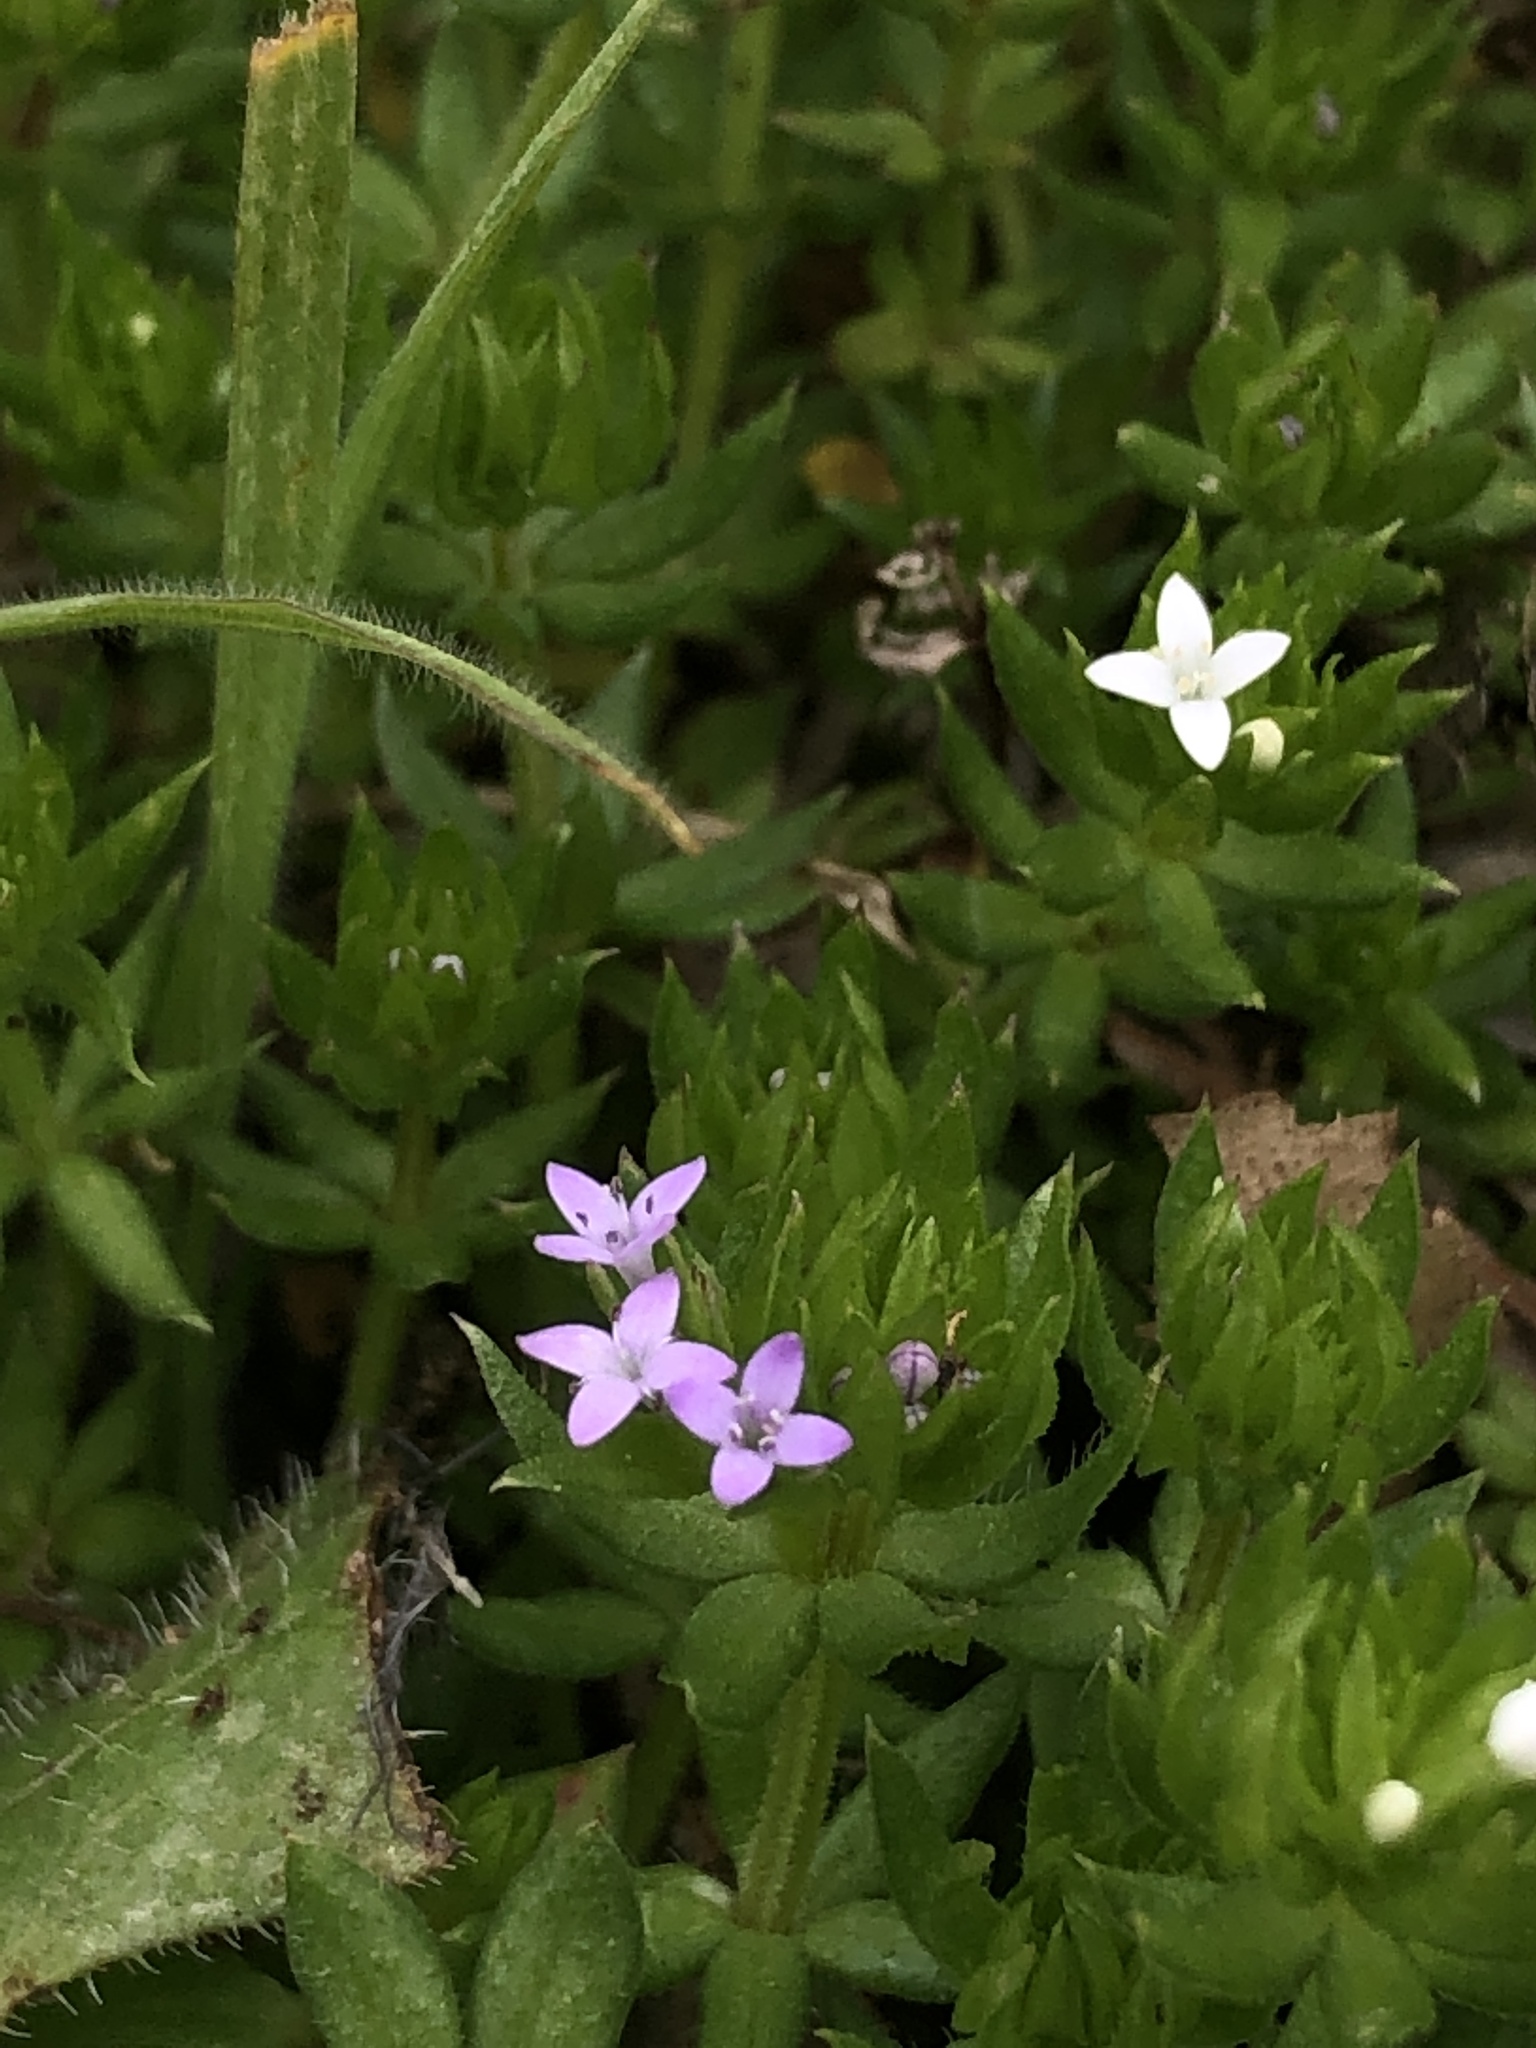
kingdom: Plantae
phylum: Tracheophyta
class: Magnoliopsida
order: Gentianales
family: Rubiaceae
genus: Sherardia
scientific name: Sherardia arvensis
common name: Field madder
